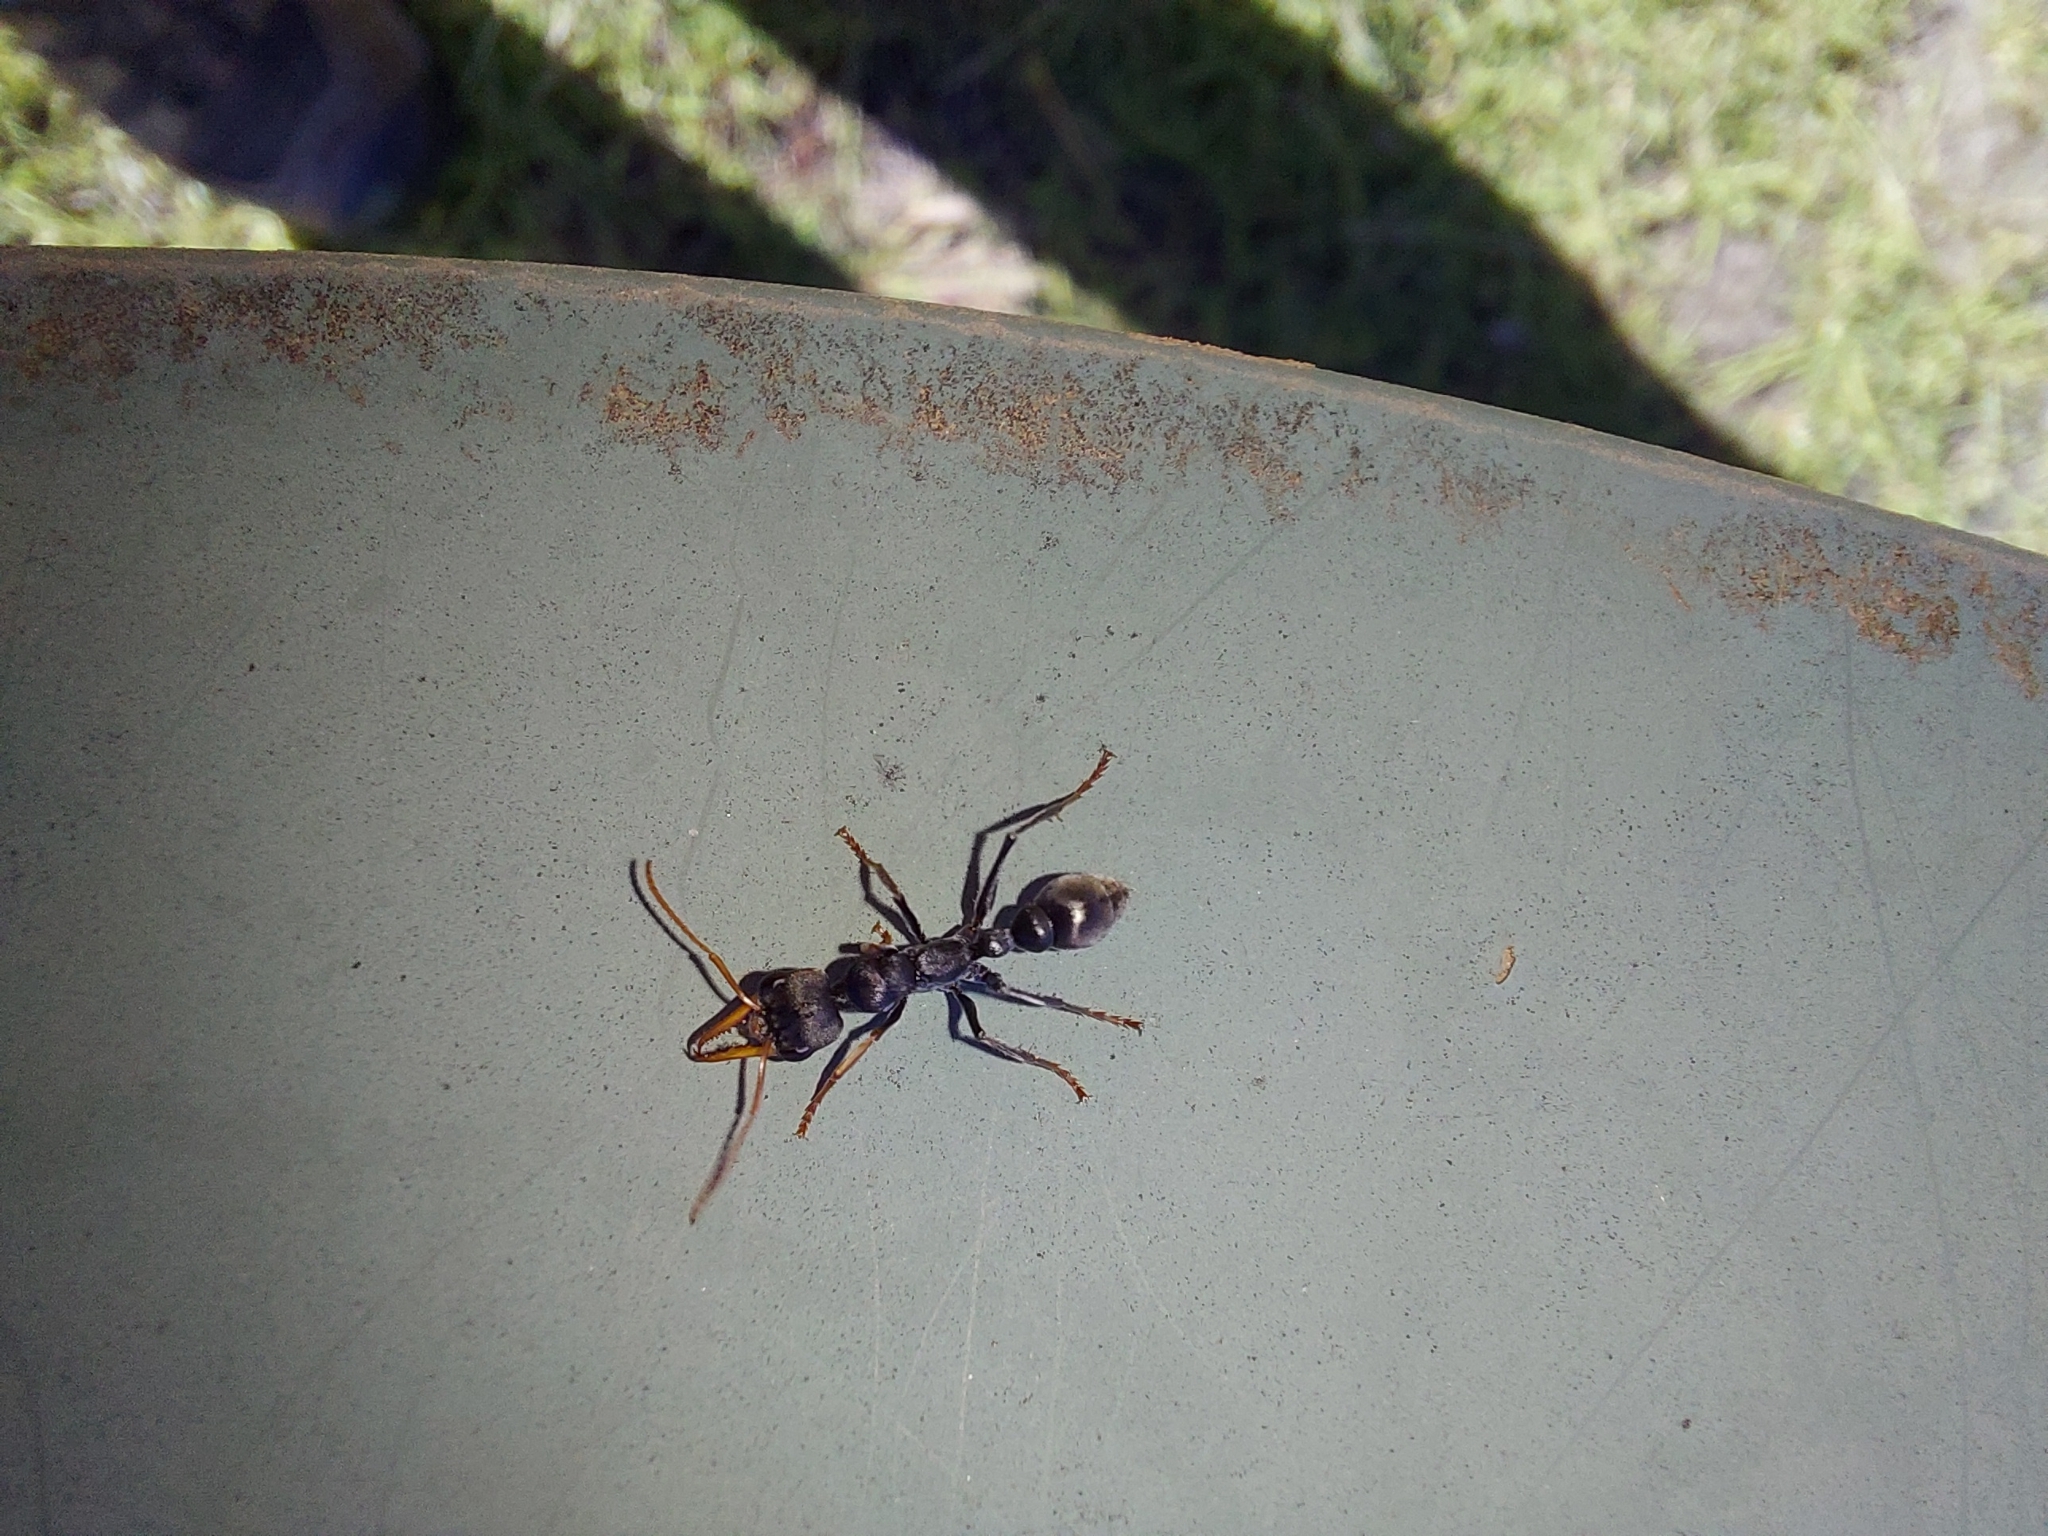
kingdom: Animalia
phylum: Arthropoda
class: Insecta
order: Hymenoptera
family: Formicidae
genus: Myrmecia
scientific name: Myrmecia pilosula
